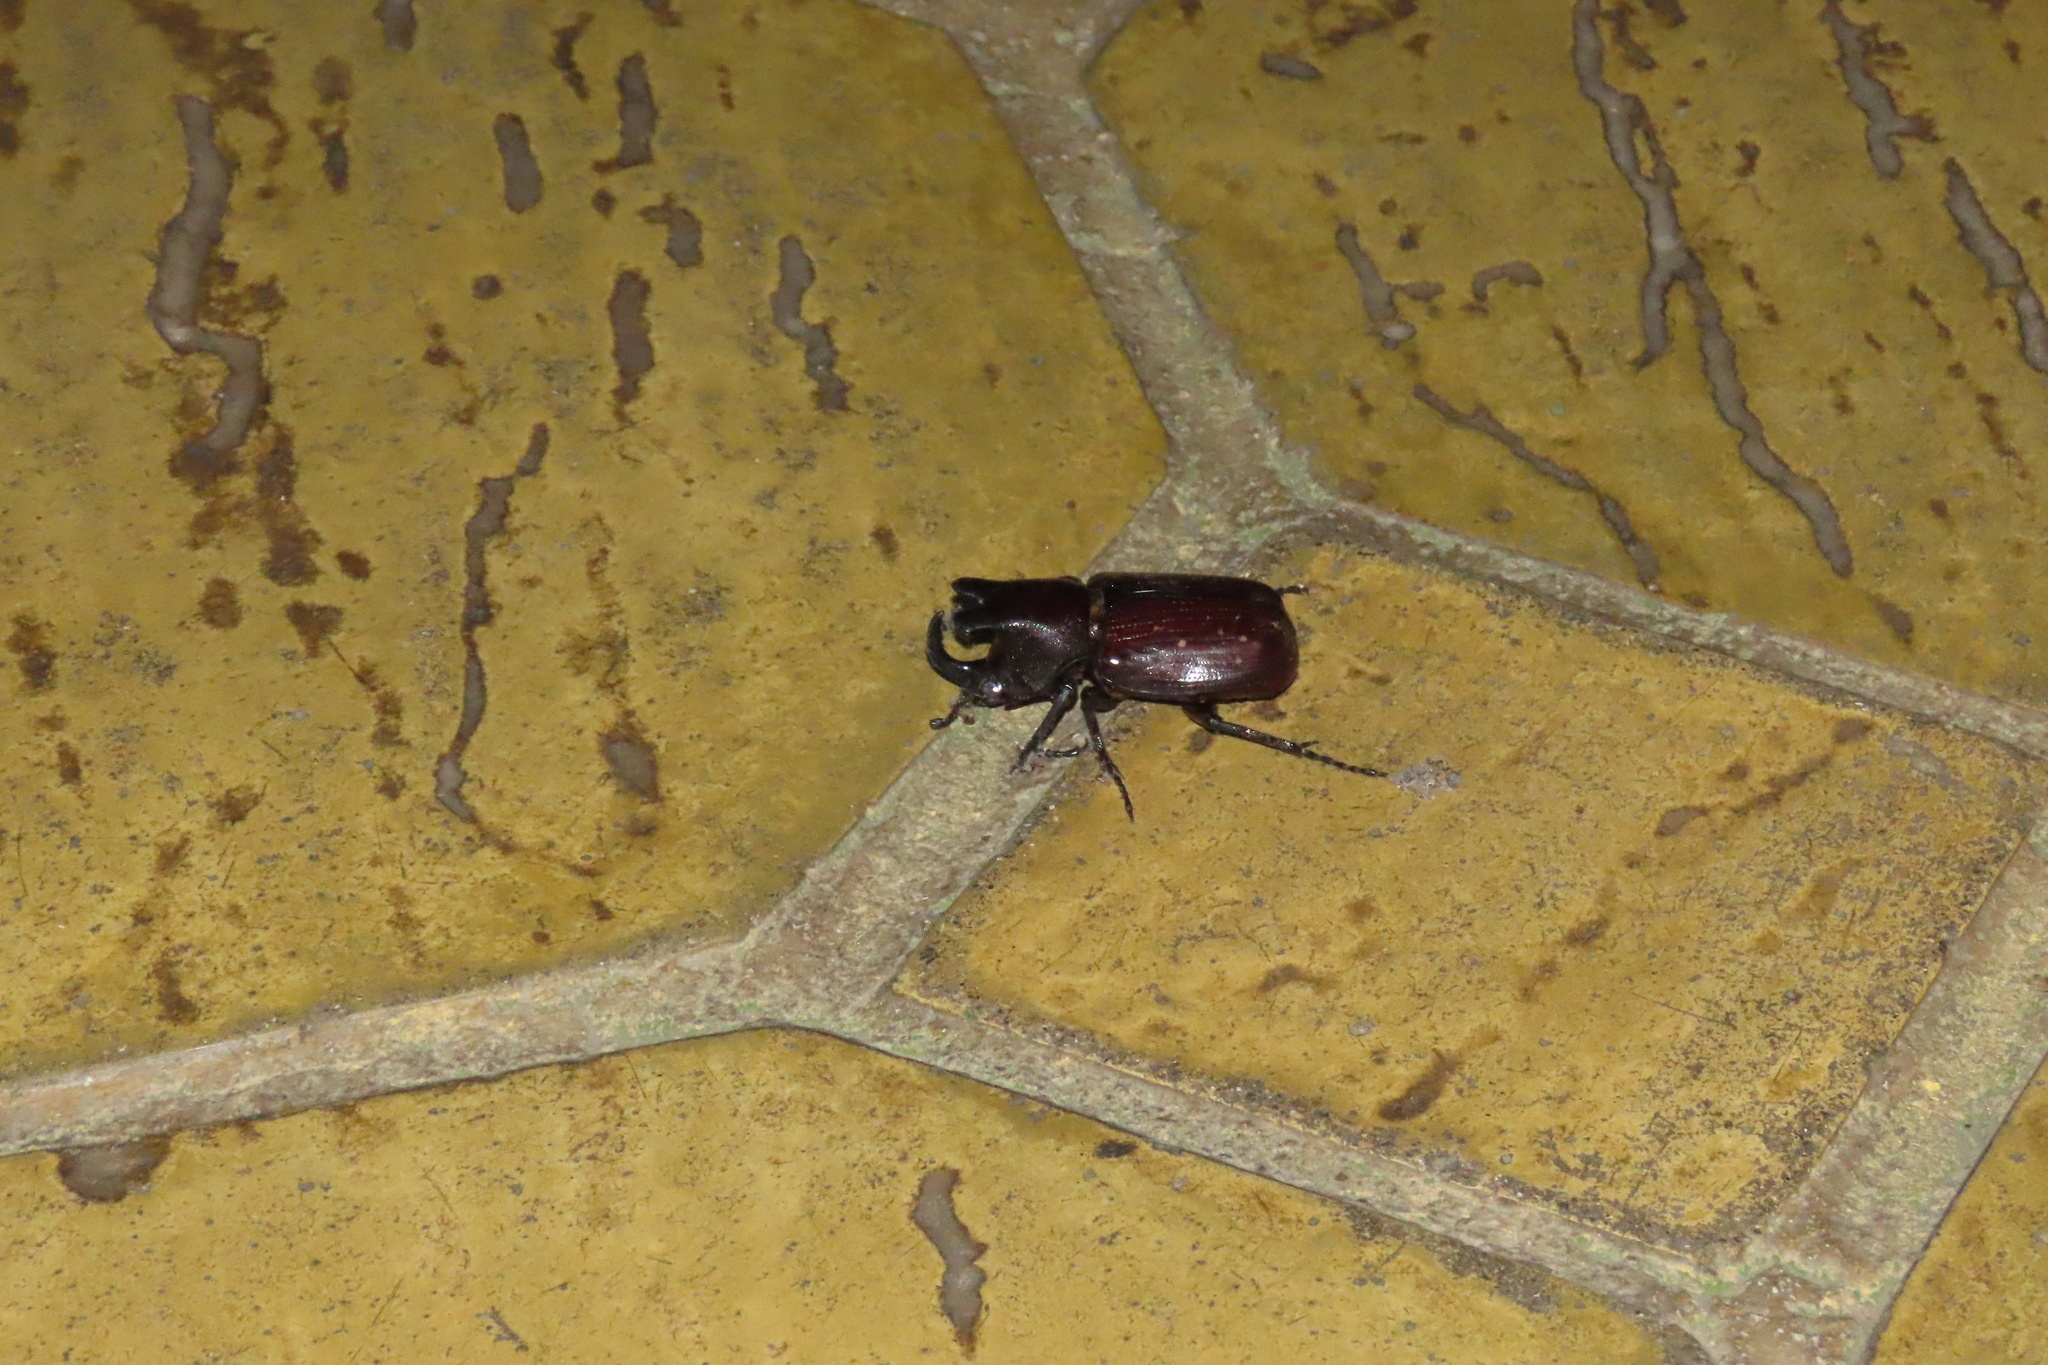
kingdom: Animalia
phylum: Arthropoda
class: Insecta
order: Coleoptera
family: Scarabaeidae
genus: Coelosis
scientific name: Coelosis biloba
